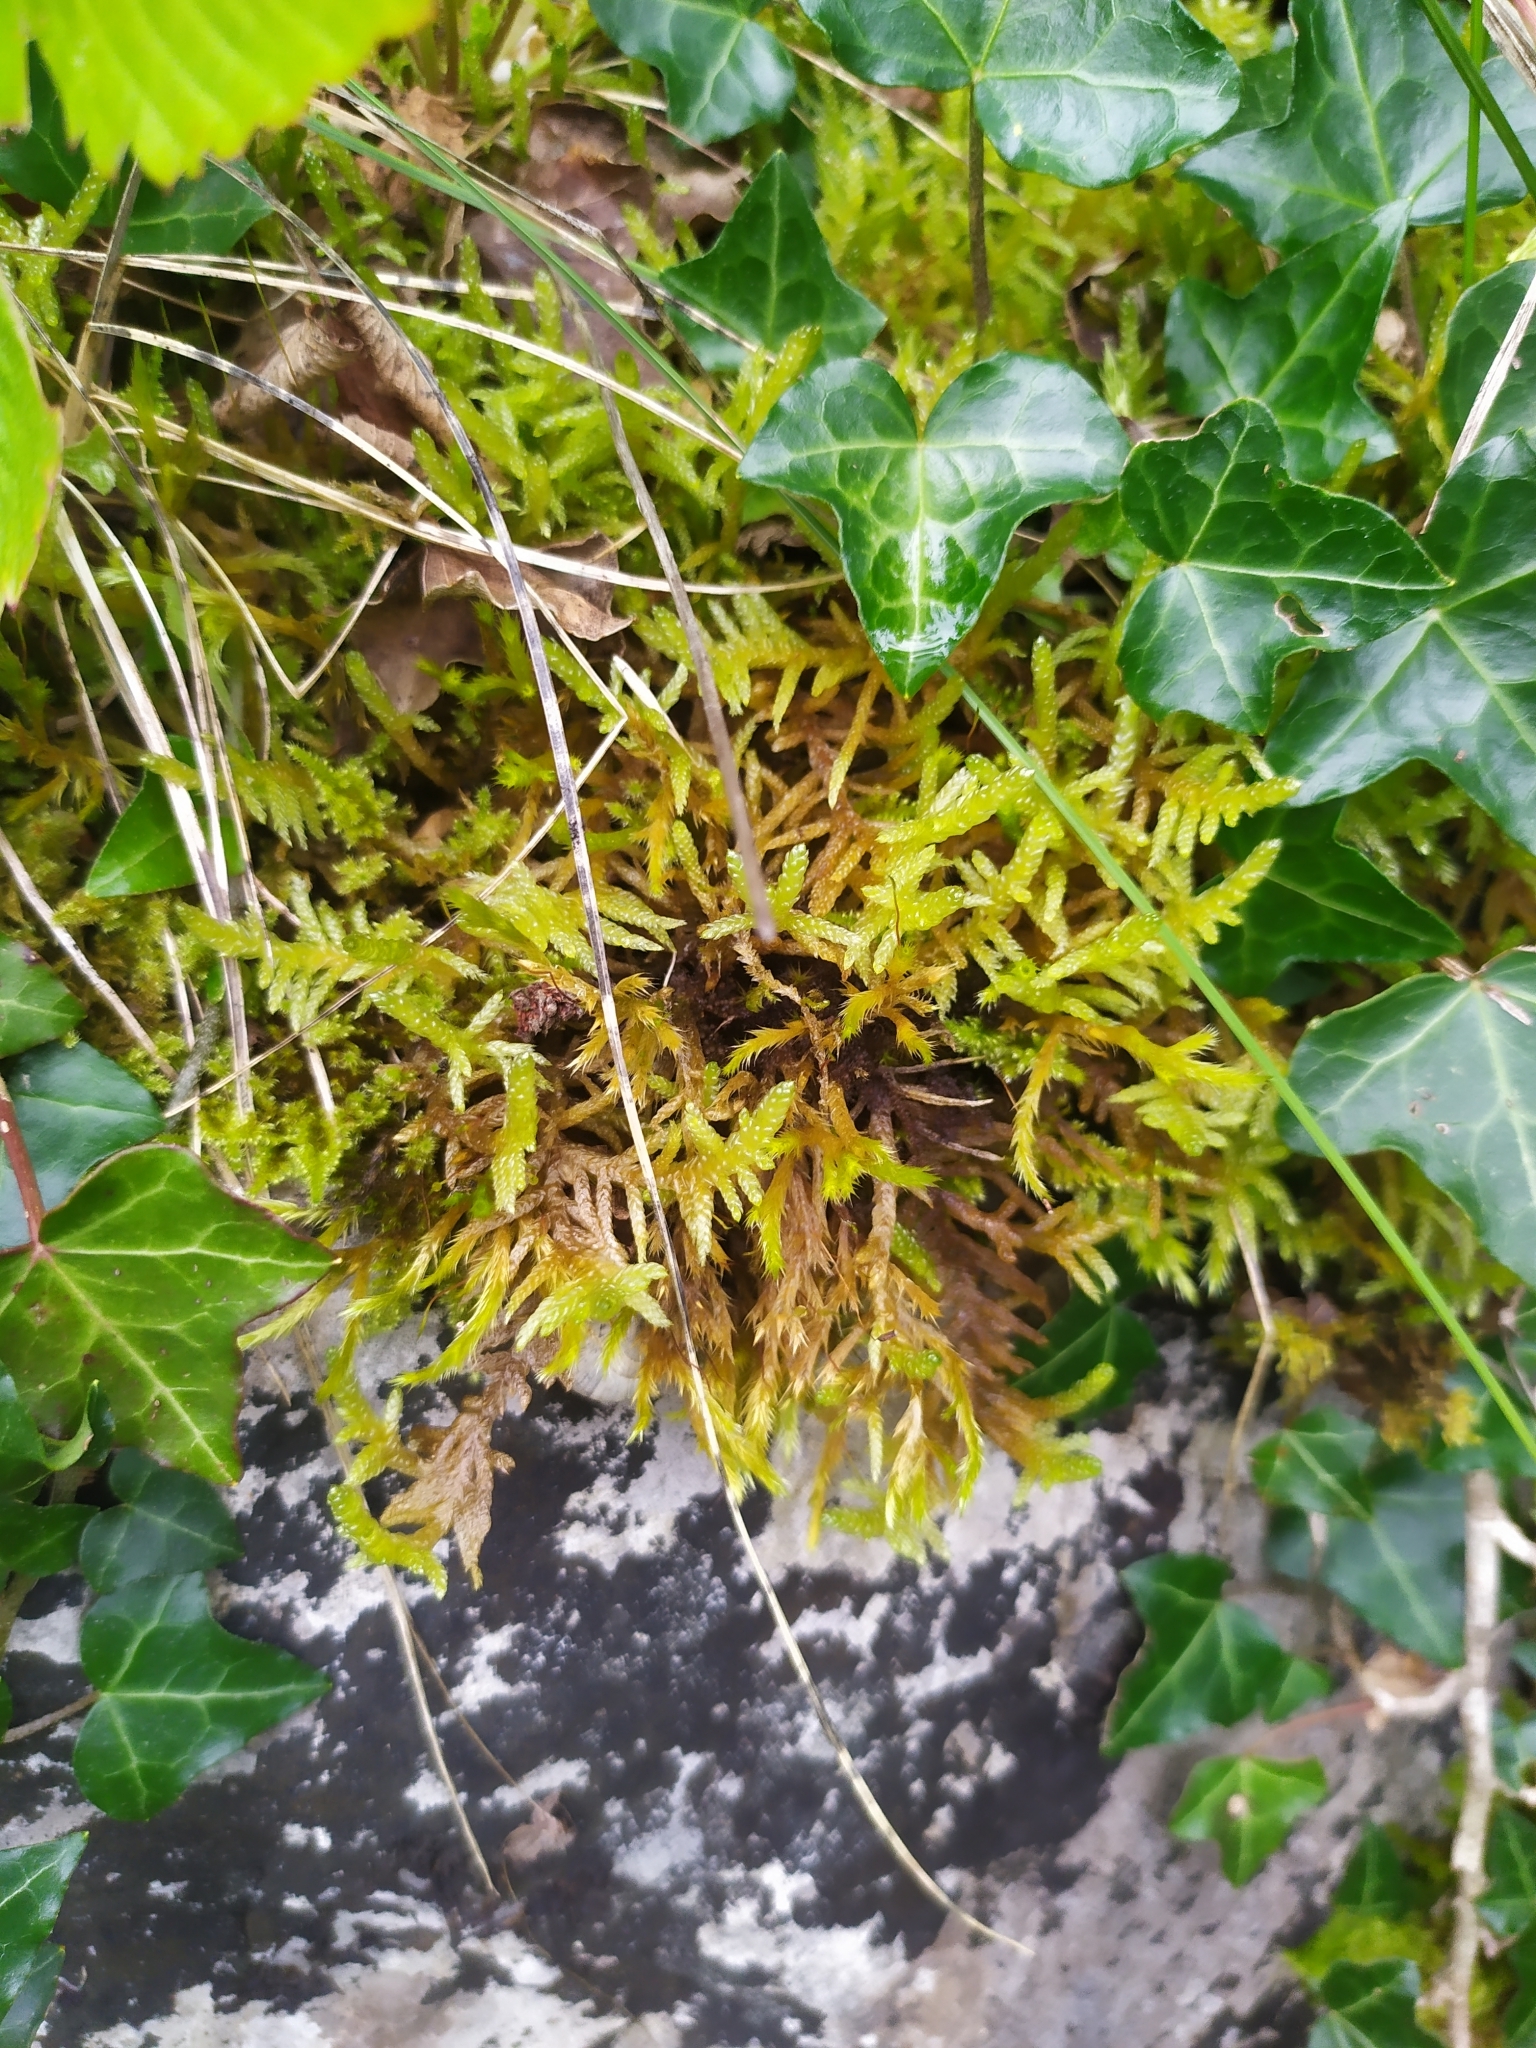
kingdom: Plantae
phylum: Bryophyta
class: Bryopsida
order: Hypnales
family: Brachytheciaceae
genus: Pseudoscleropodium
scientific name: Pseudoscleropodium purum
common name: Neat feather-moss
